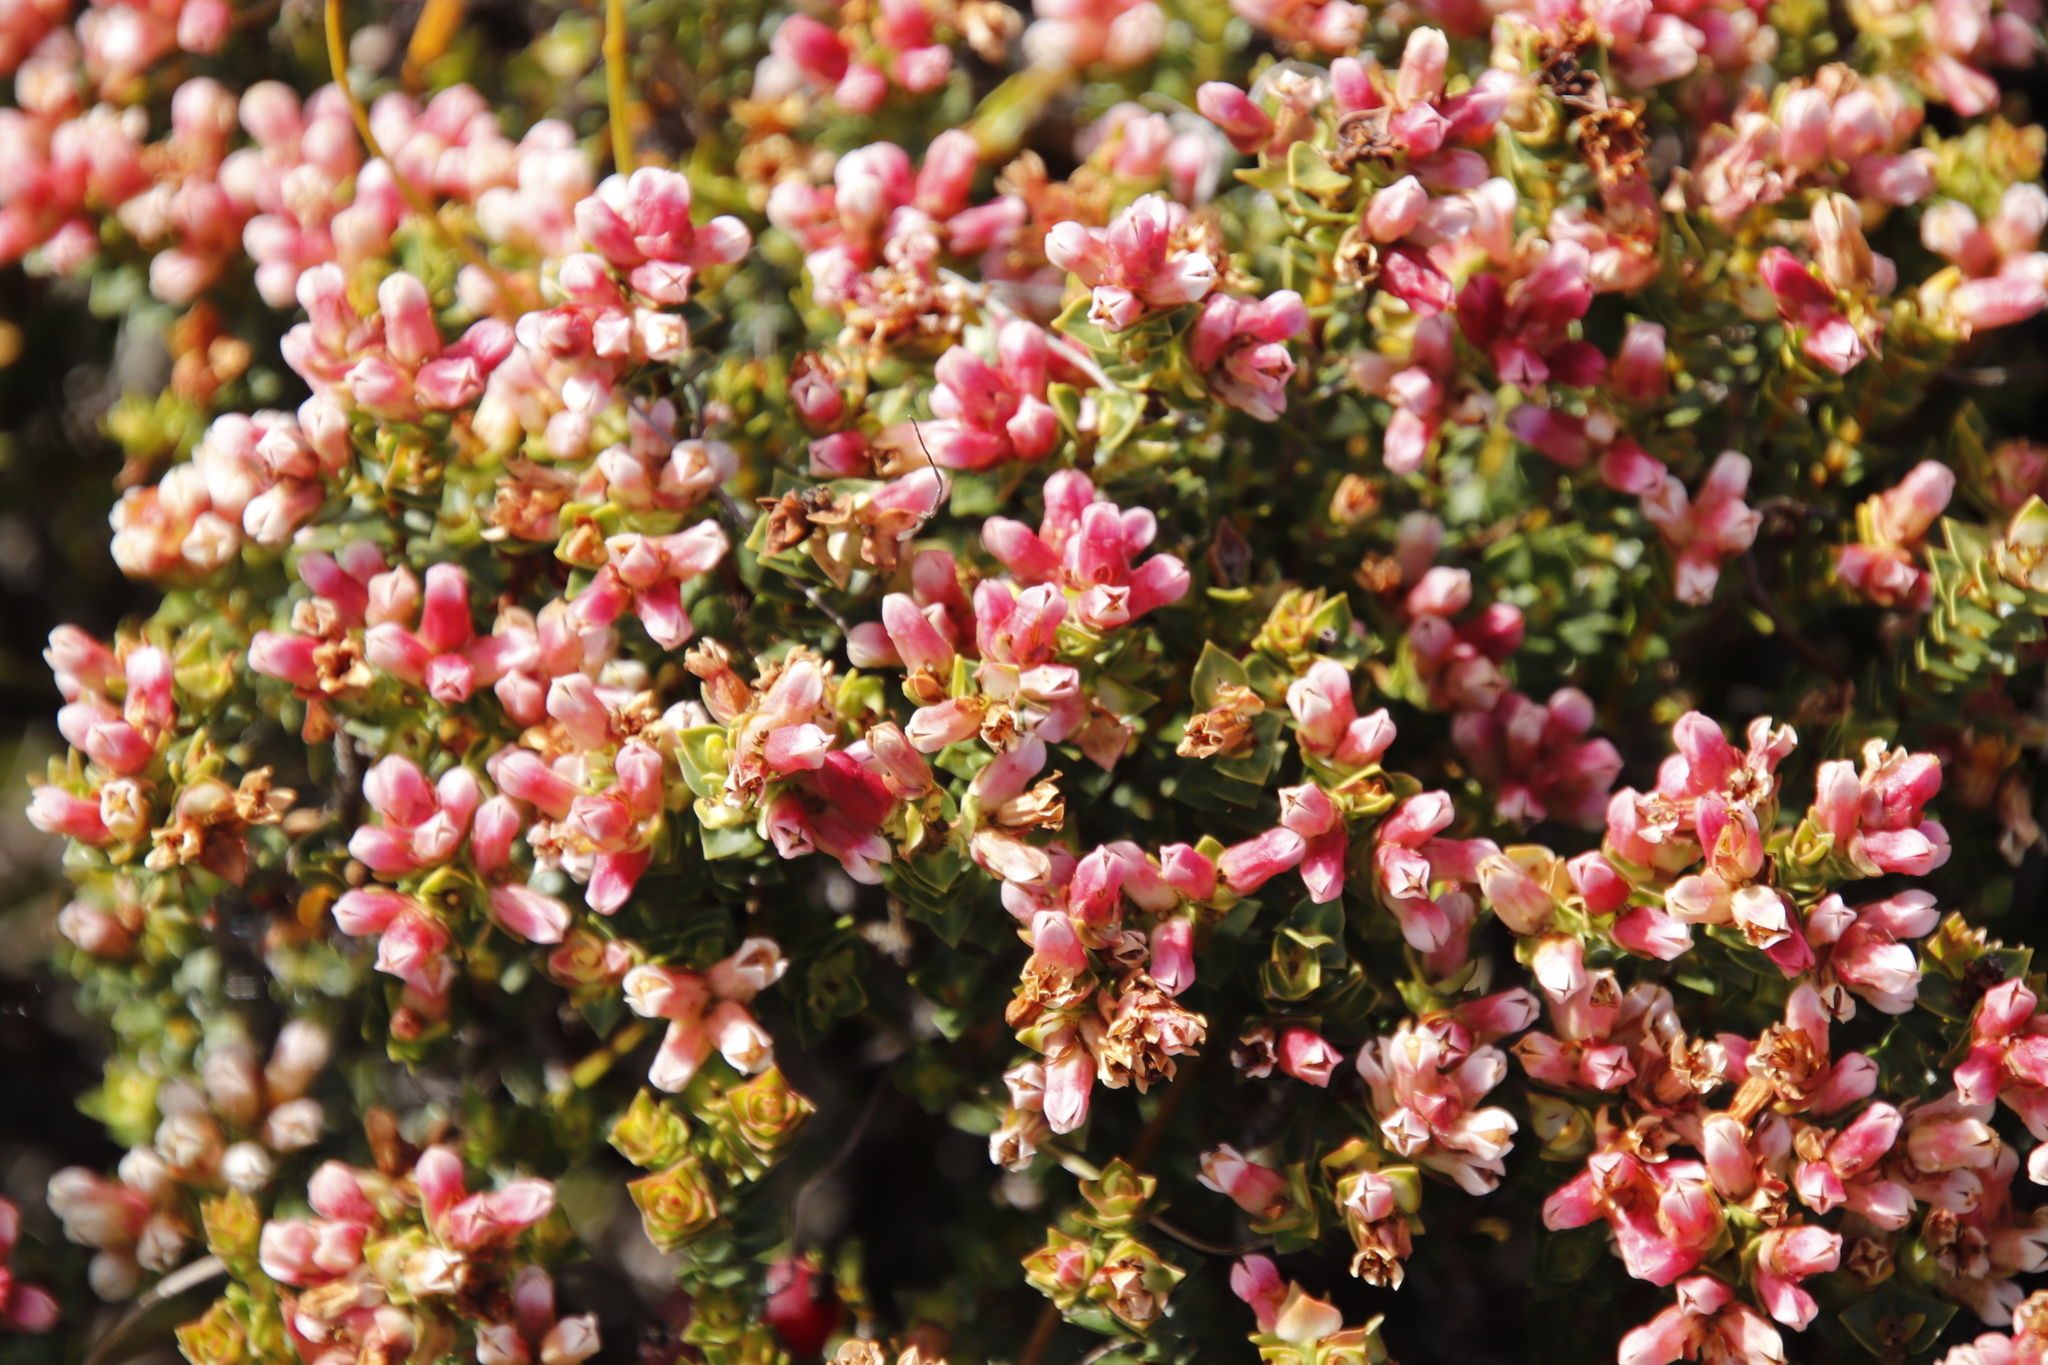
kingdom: Plantae
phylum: Tracheophyta
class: Magnoliopsida
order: Myrtales
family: Penaeaceae
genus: Brachysiphon
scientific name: Brachysiphon fucatus
